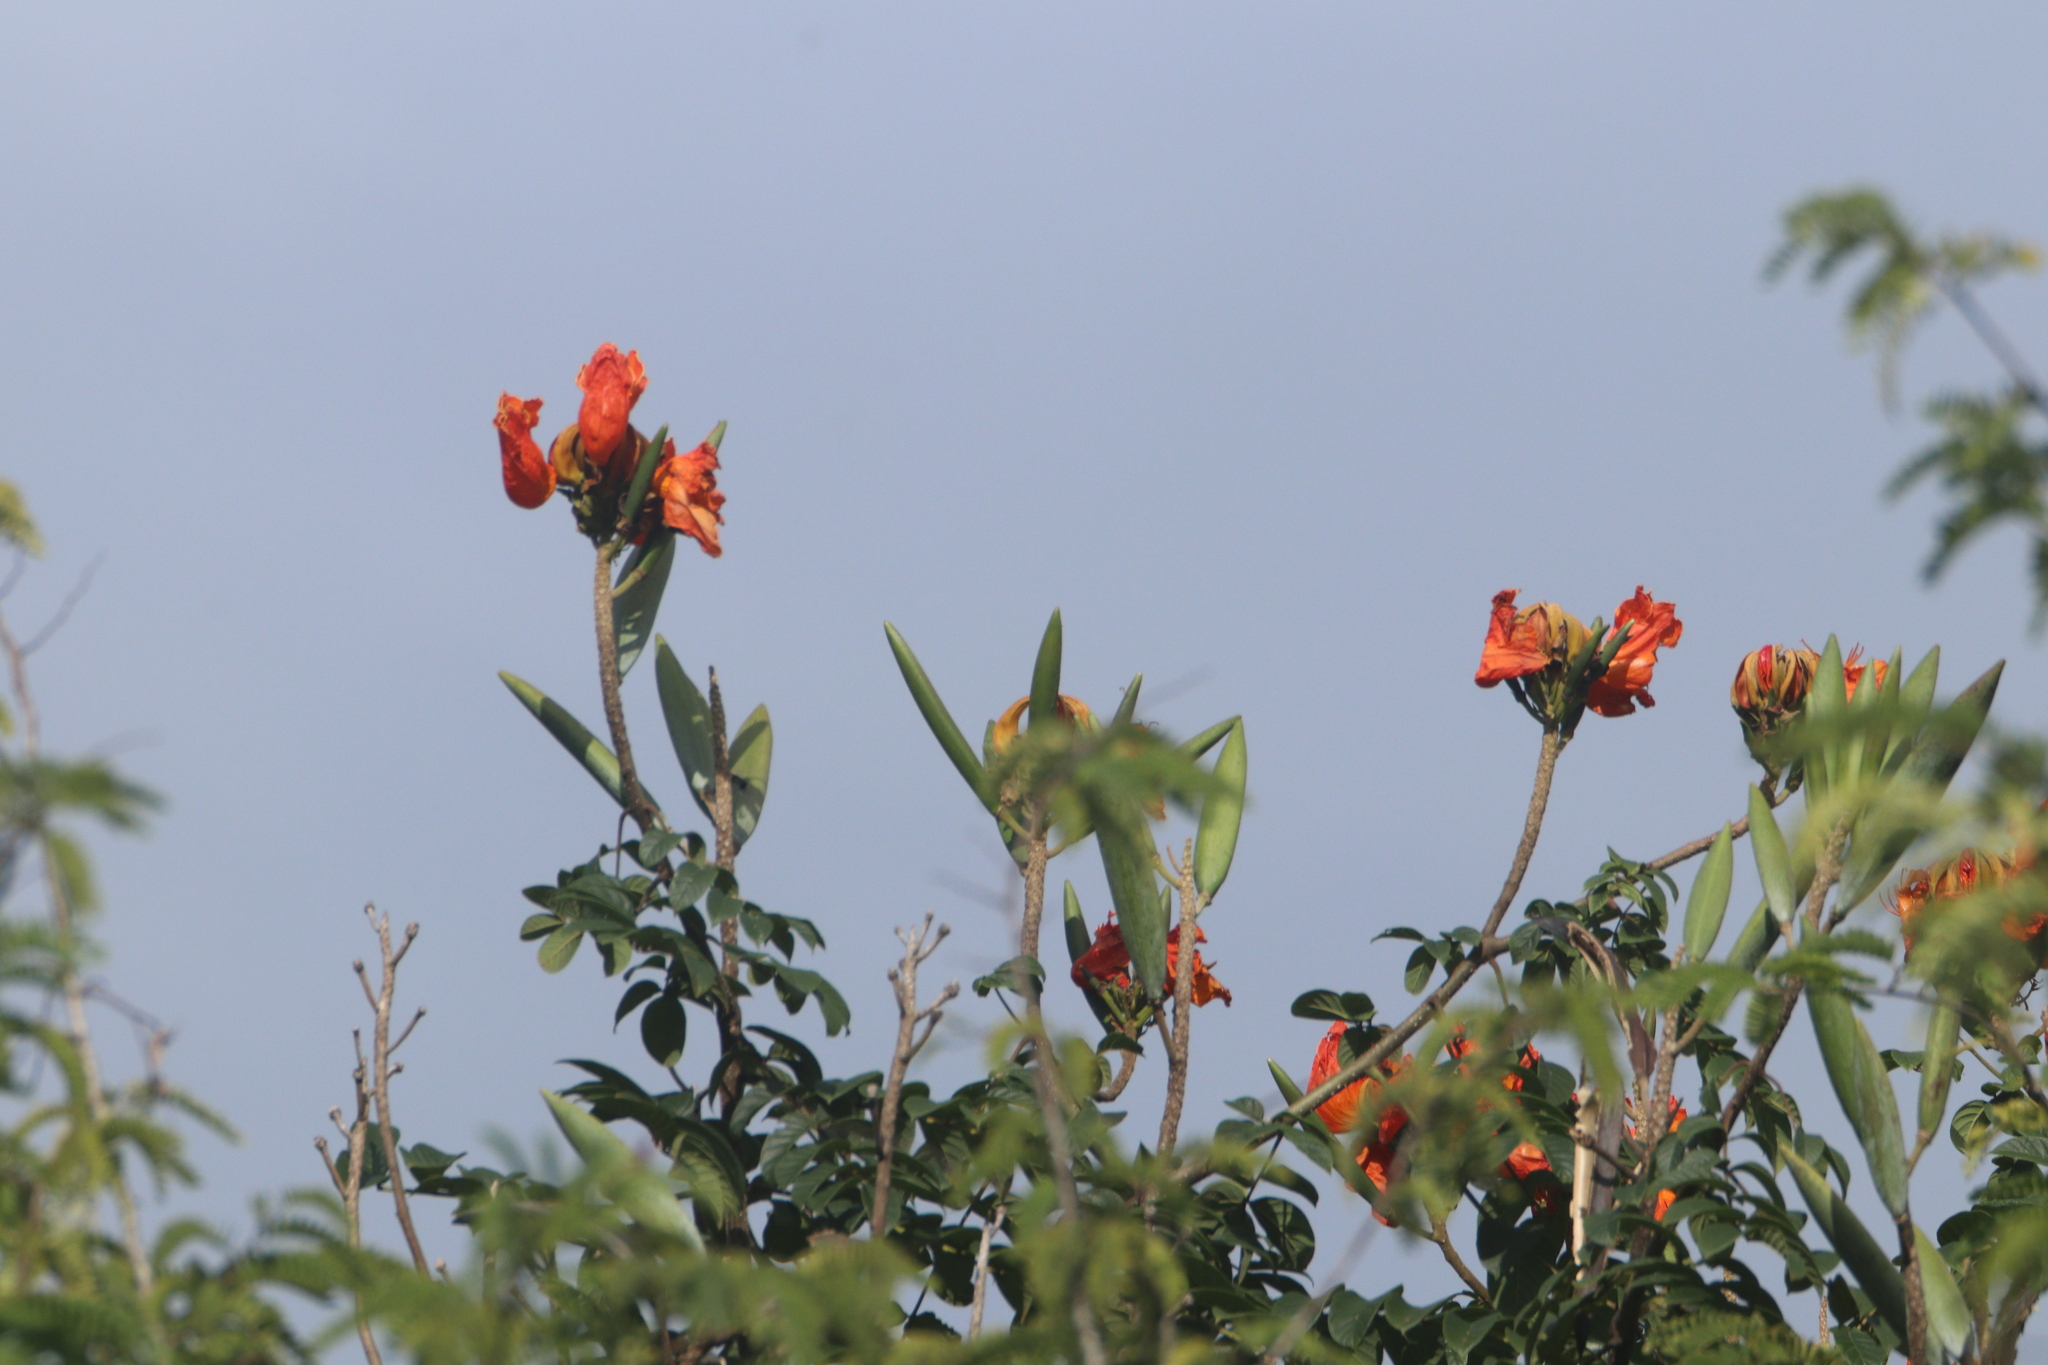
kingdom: Plantae
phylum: Tracheophyta
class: Magnoliopsida
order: Lamiales
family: Bignoniaceae
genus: Spathodea
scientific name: Spathodea campanulata
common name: African tuliptree
